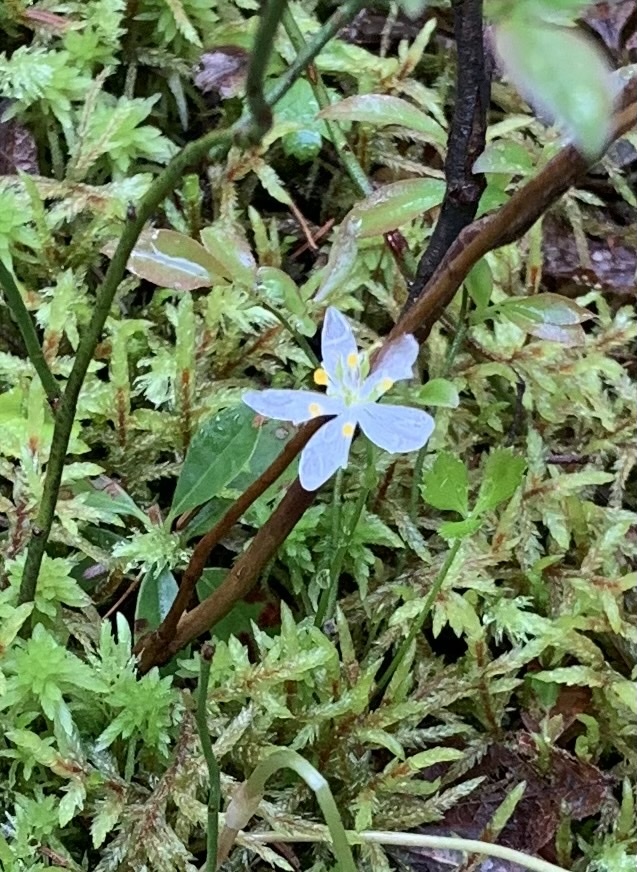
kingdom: Plantae
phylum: Tracheophyta
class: Magnoliopsida
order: Ranunculales
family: Ranunculaceae
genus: Coptis
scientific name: Coptis trifolia
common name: Canker-root
